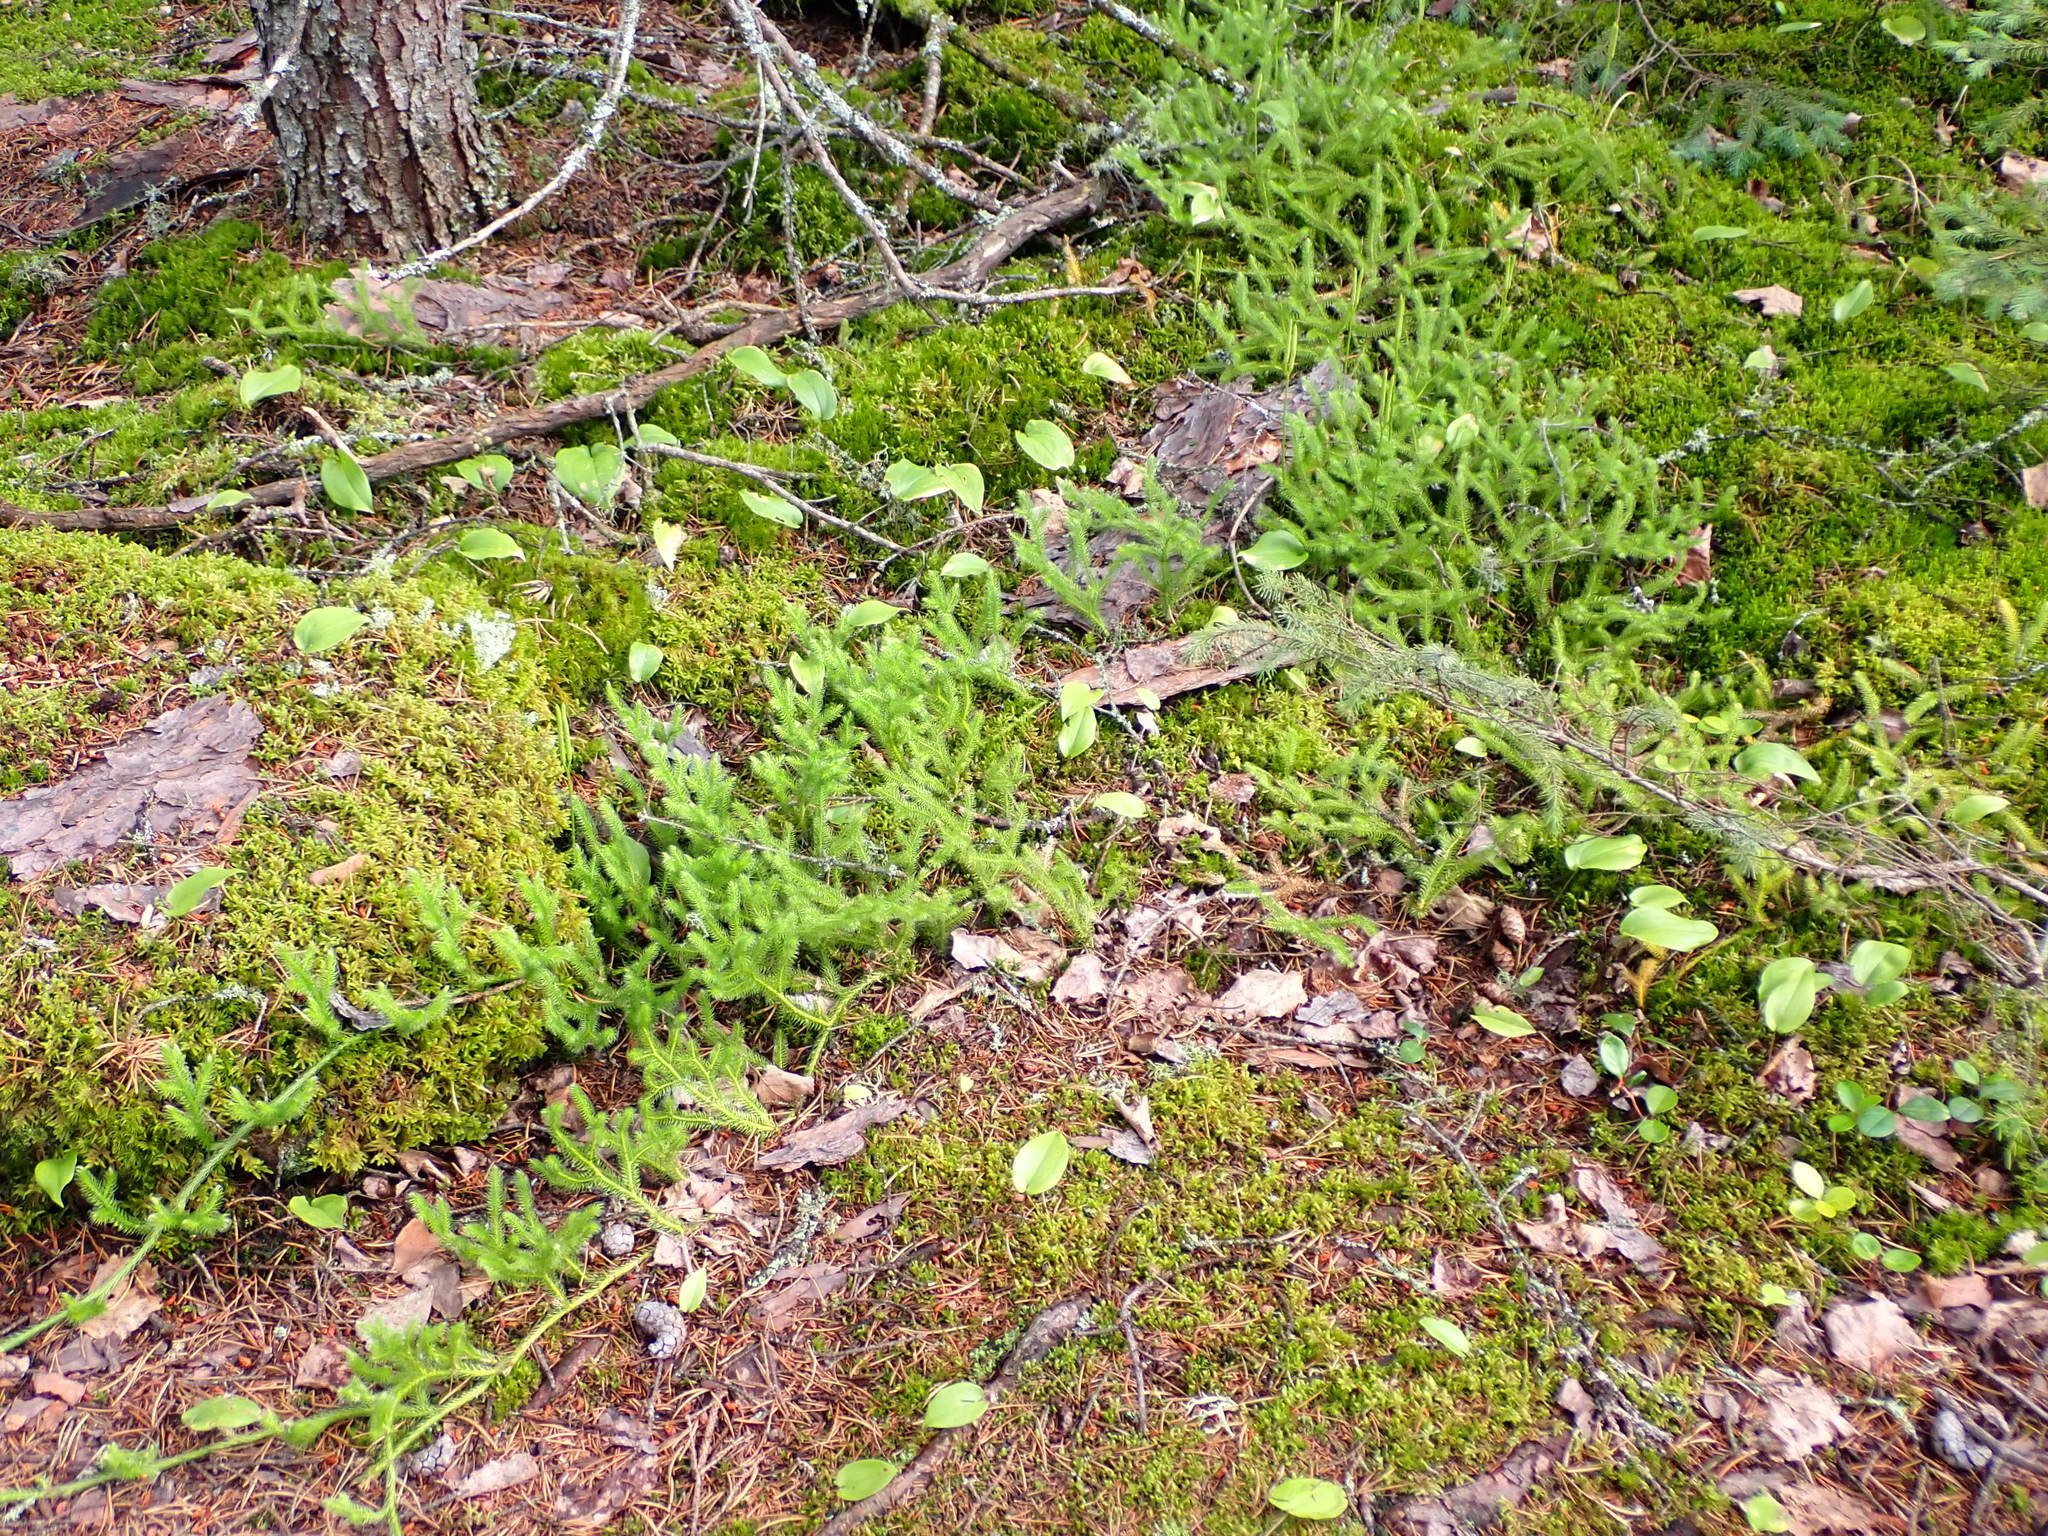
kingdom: Plantae
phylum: Tracheophyta
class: Lycopodiopsida
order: Lycopodiales
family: Lycopodiaceae
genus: Lycopodium
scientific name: Lycopodium clavatum
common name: Stag's-horn clubmoss
